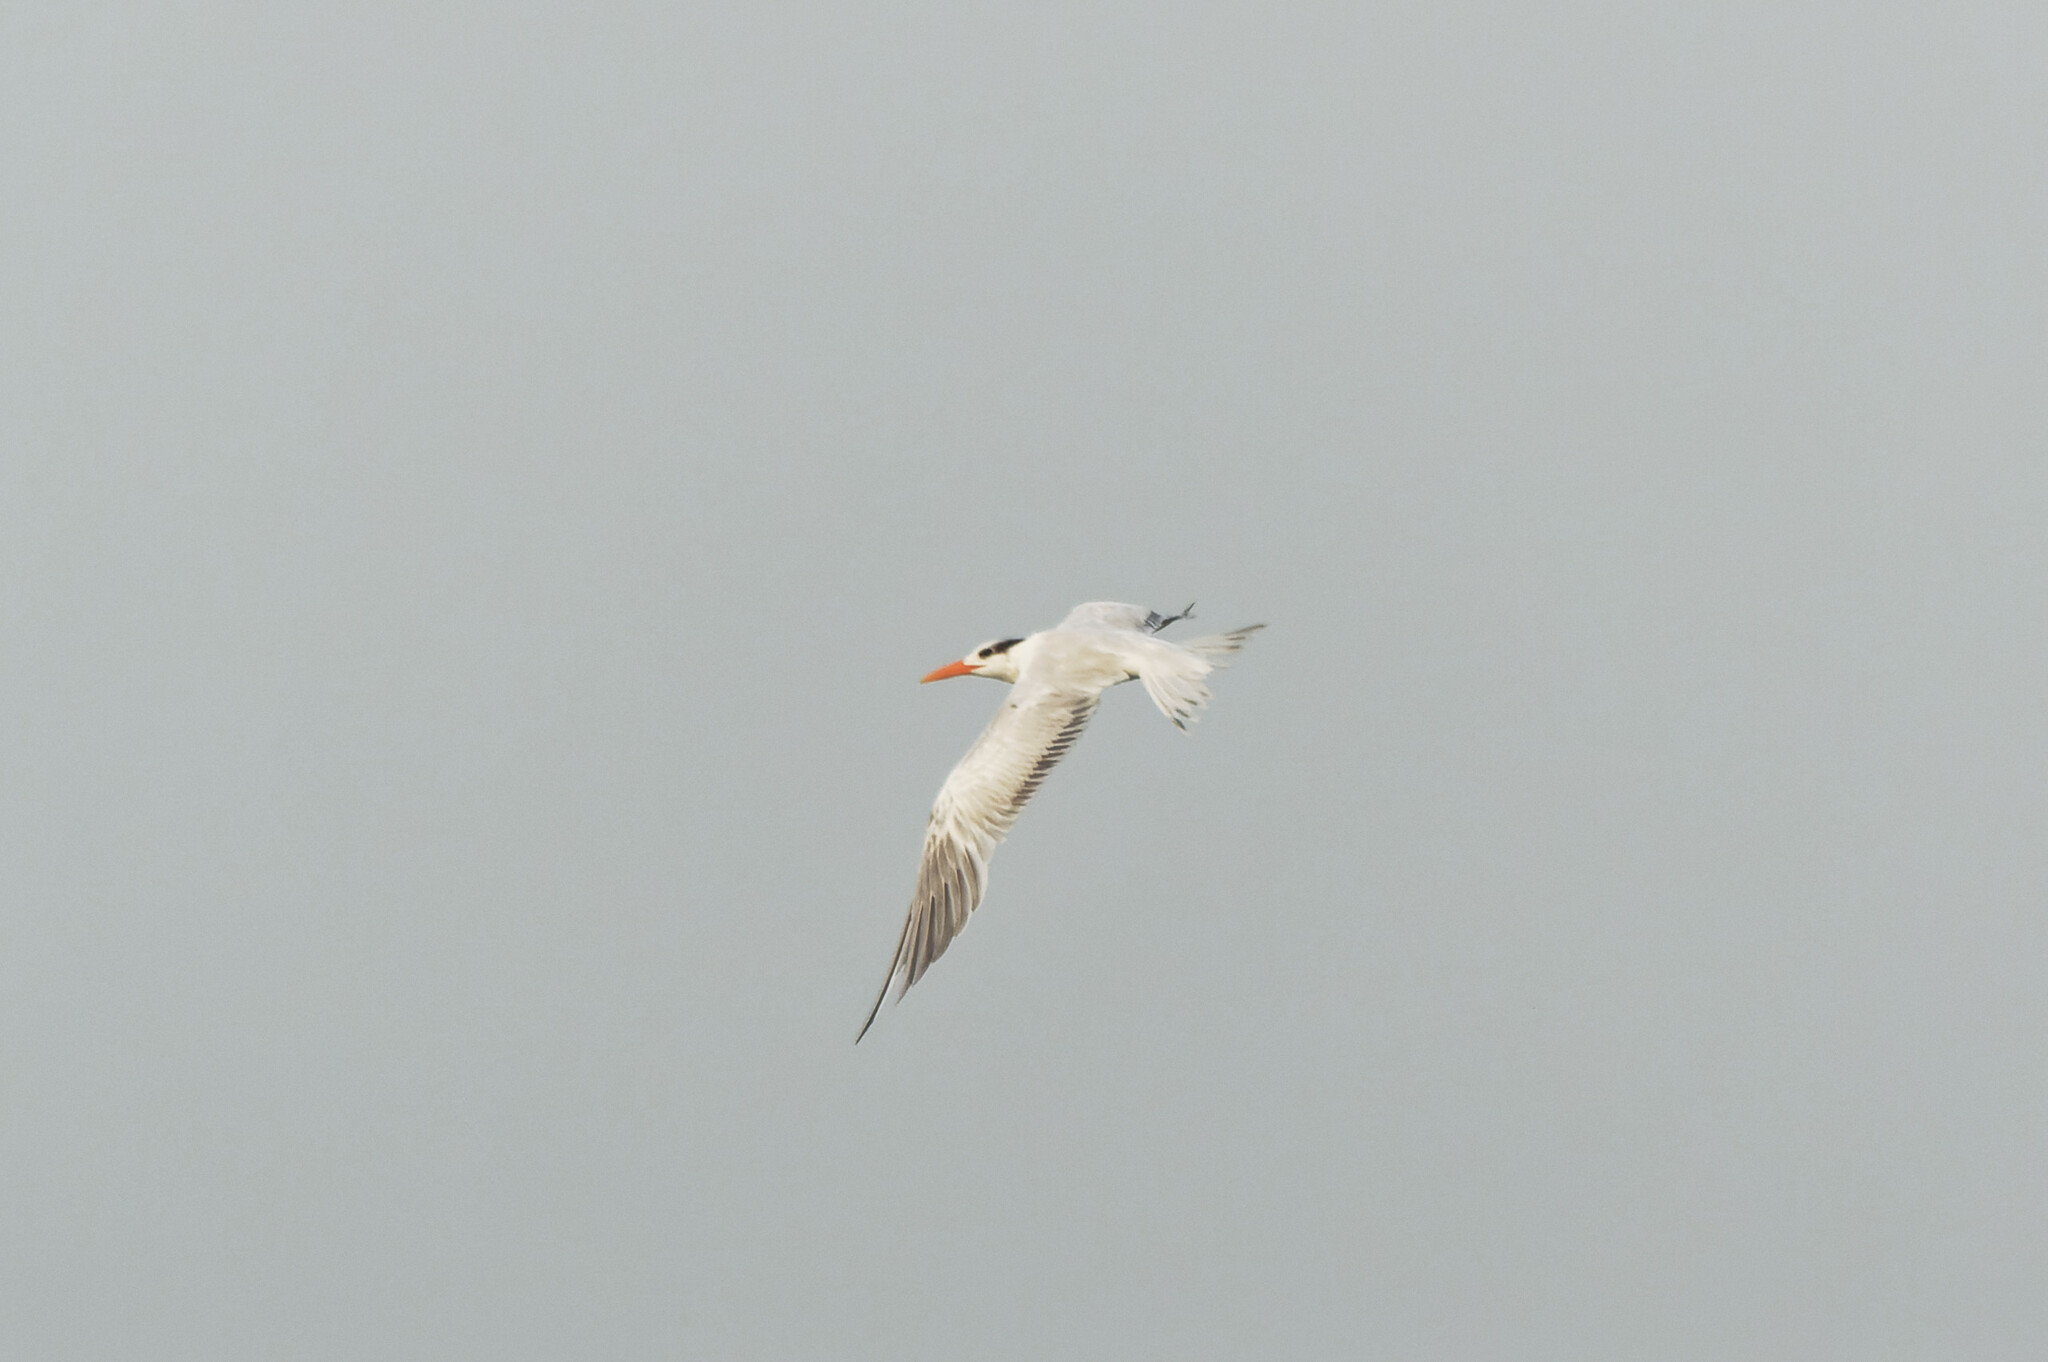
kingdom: Animalia
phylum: Chordata
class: Aves
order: Charadriiformes
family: Laridae
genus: Thalasseus
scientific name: Thalasseus maximus
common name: Royal tern
